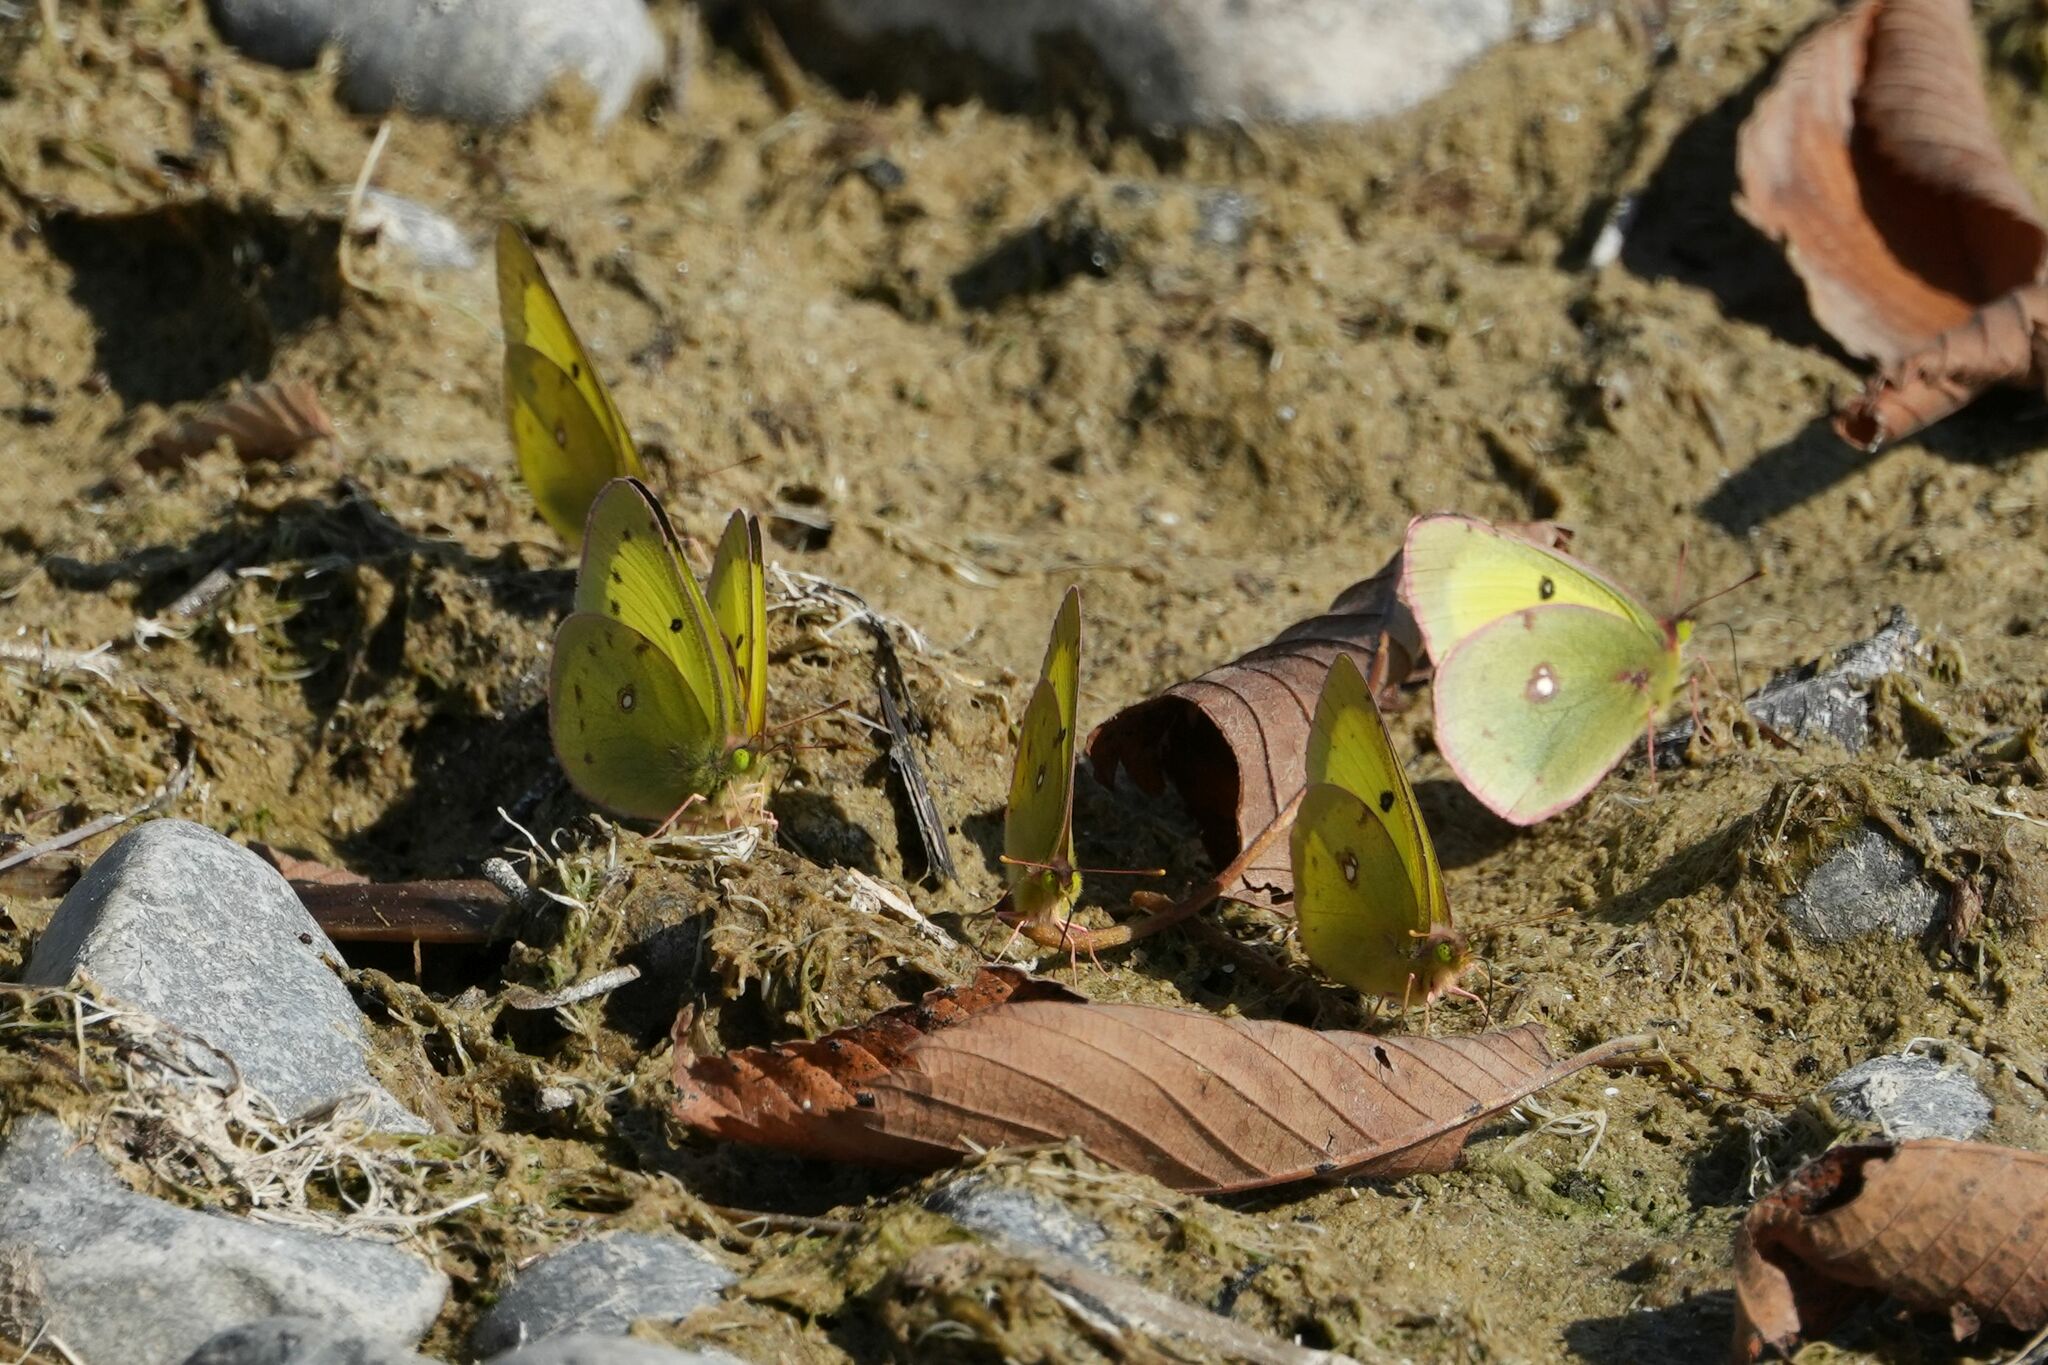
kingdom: Animalia
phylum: Arthropoda
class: Insecta
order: Lepidoptera
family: Pieridae
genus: Colias
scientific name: Colias philodice
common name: Clouded sulphur
